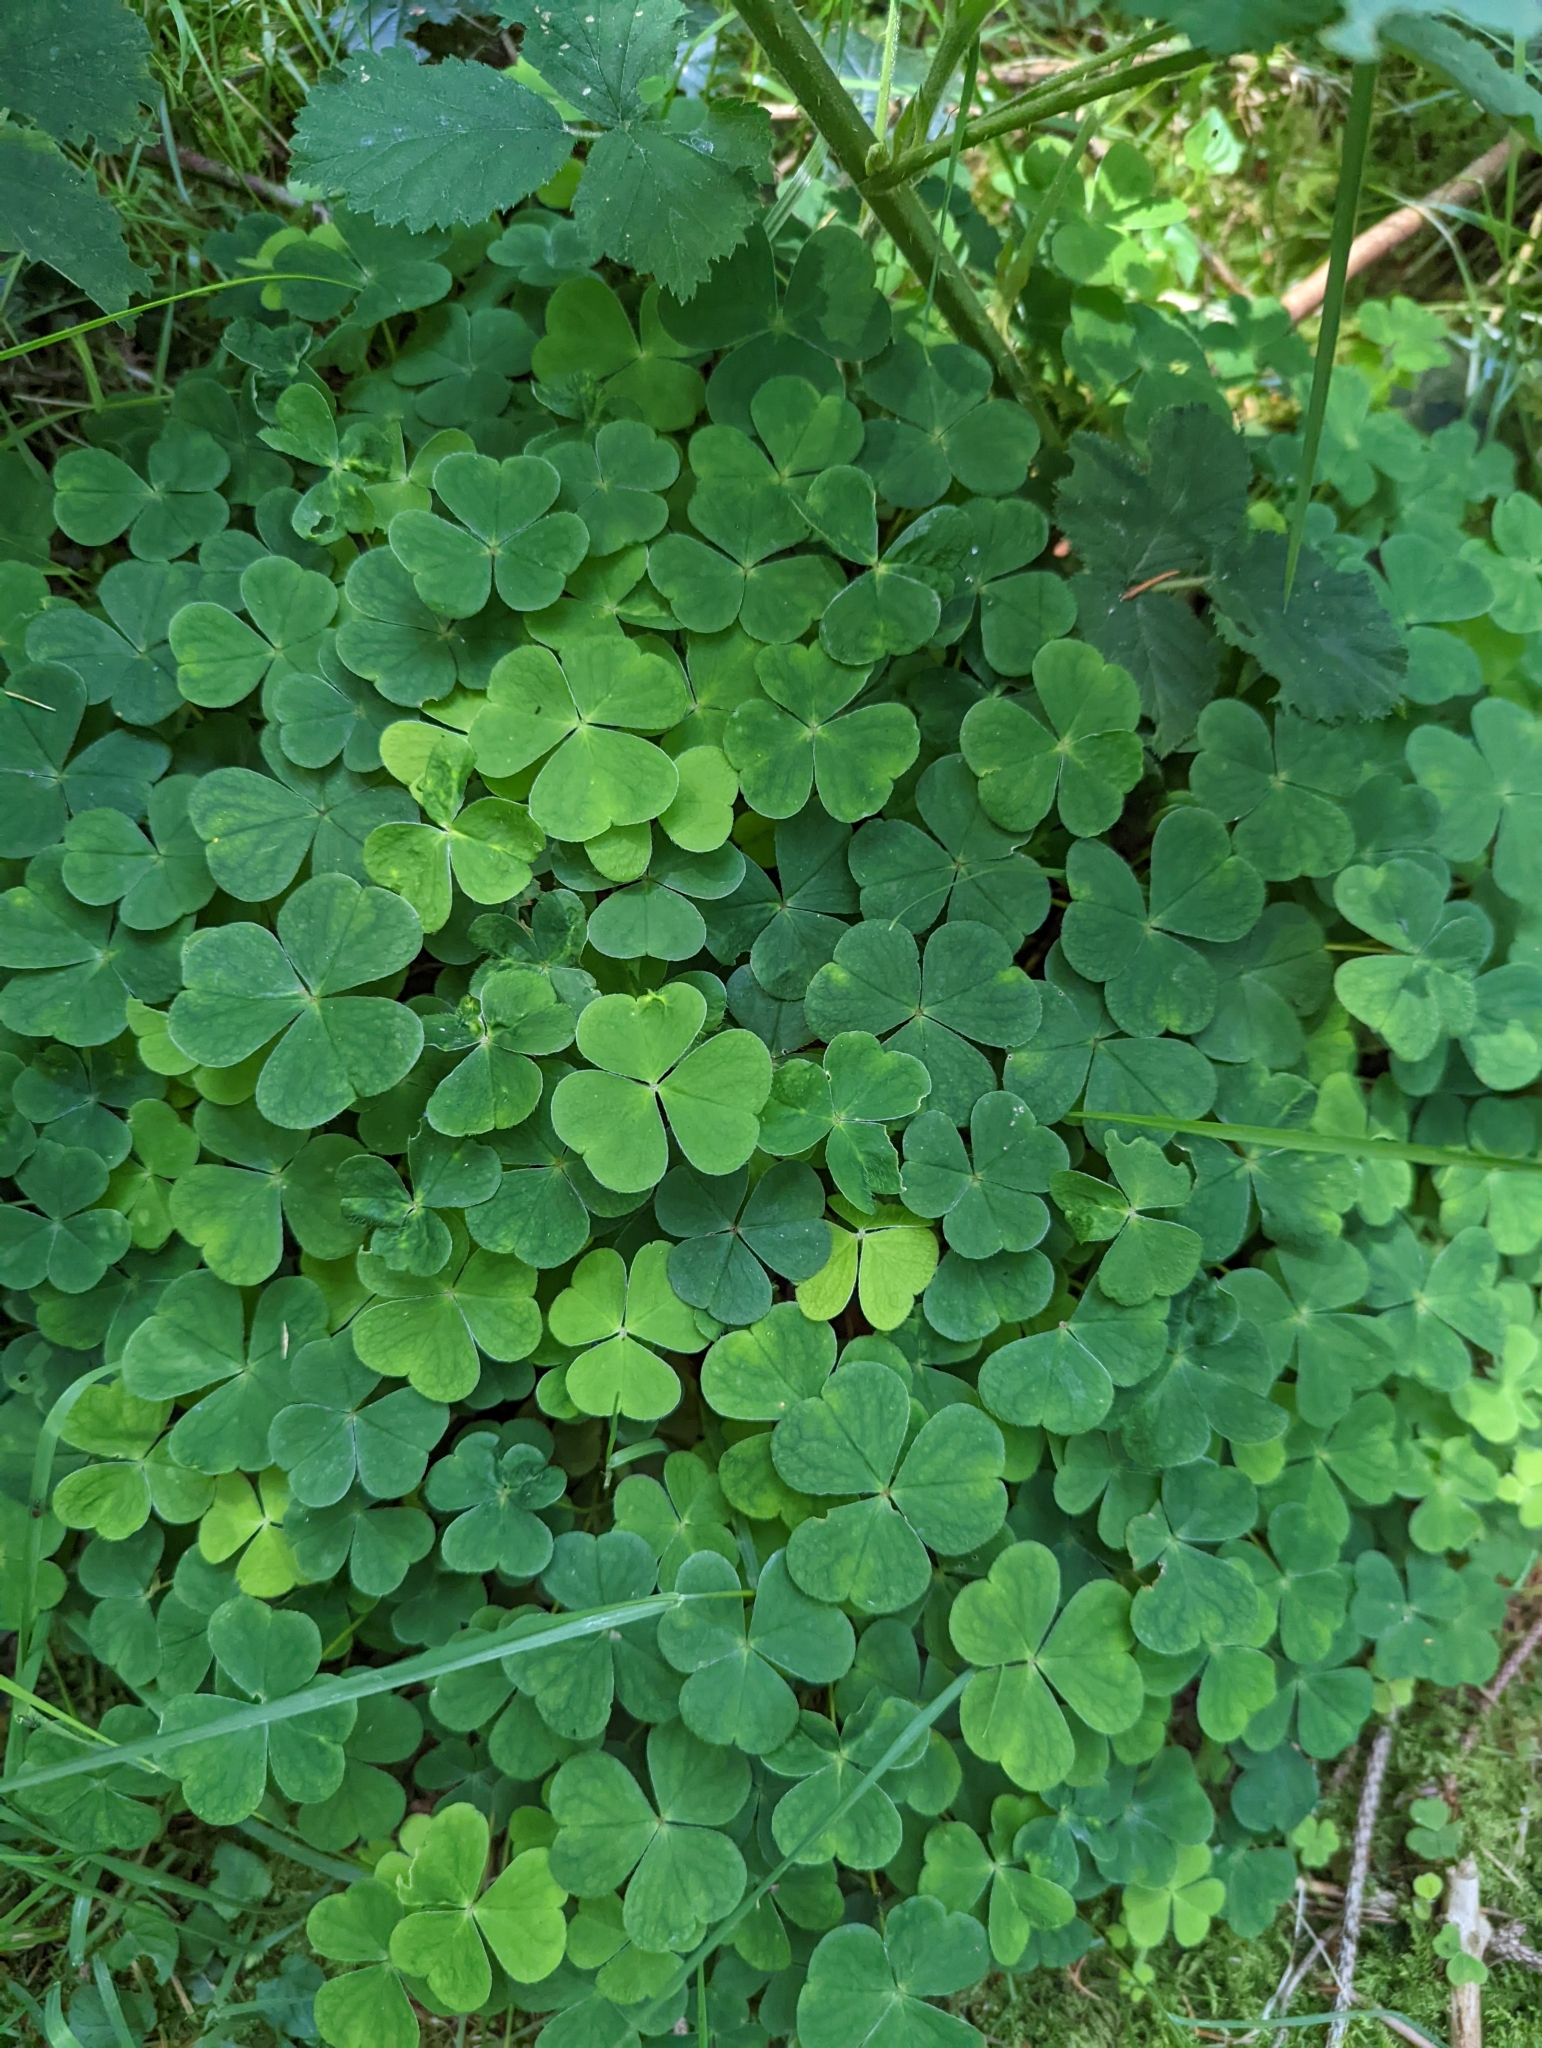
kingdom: Plantae
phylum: Tracheophyta
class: Magnoliopsida
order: Oxalidales
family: Oxalidaceae
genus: Oxalis
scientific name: Oxalis acetosella
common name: Wood-sorrel
